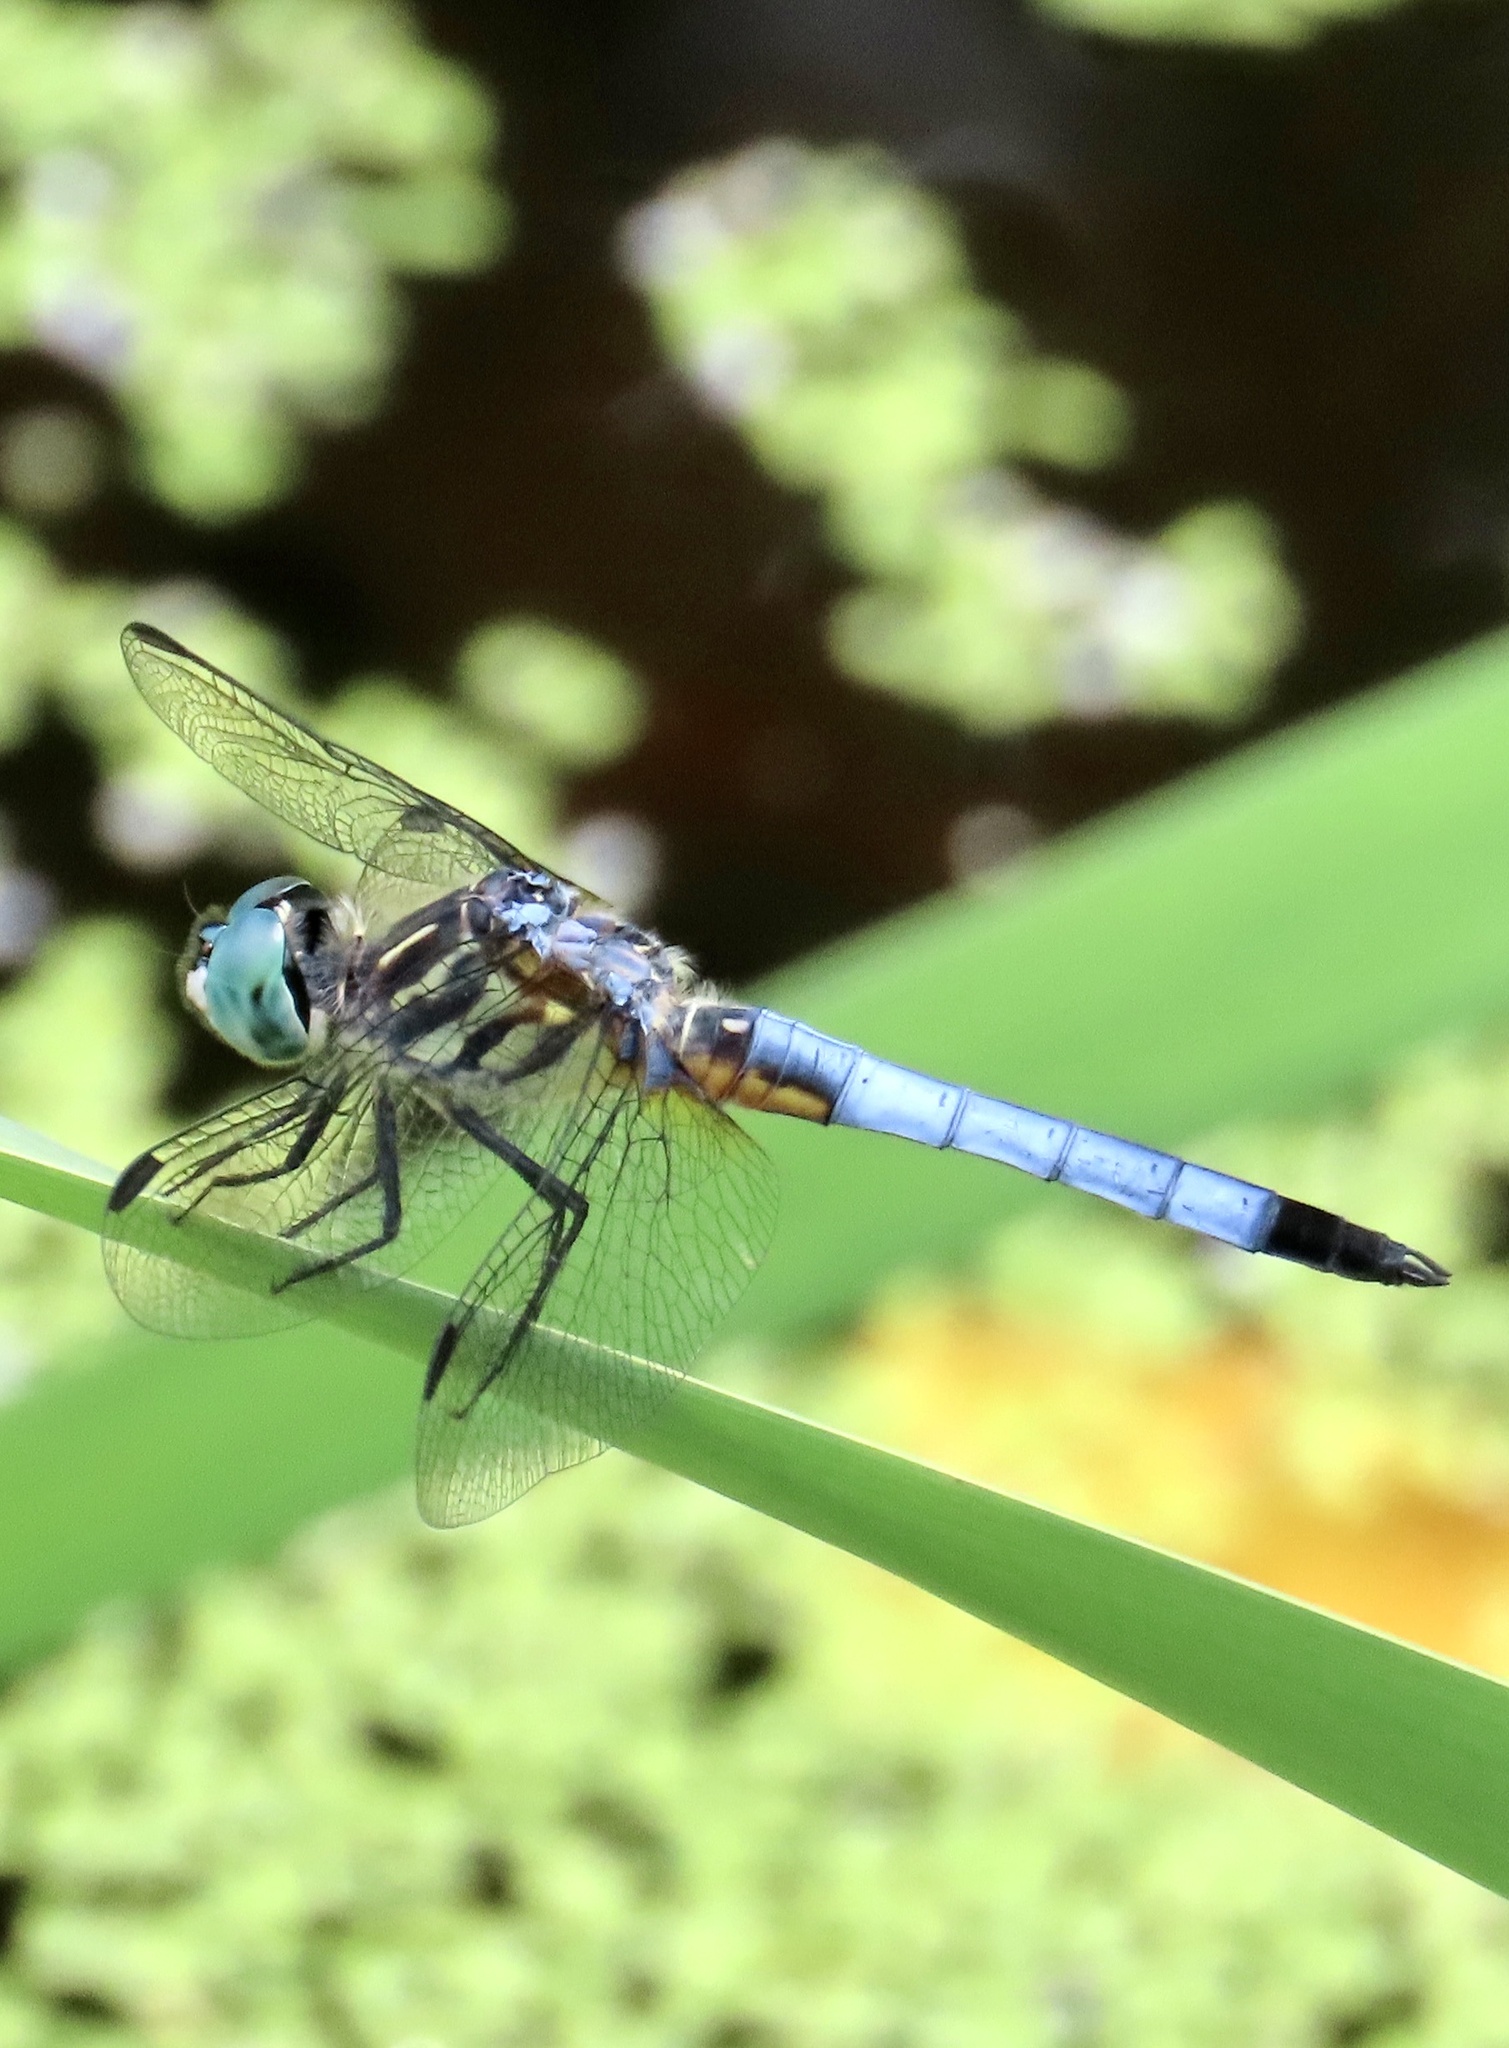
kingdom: Animalia
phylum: Arthropoda
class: Insecta
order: Odonata
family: Libellulidae
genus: Pachydiplax
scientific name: Pachydiplax longipennis
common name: Blue dasher
